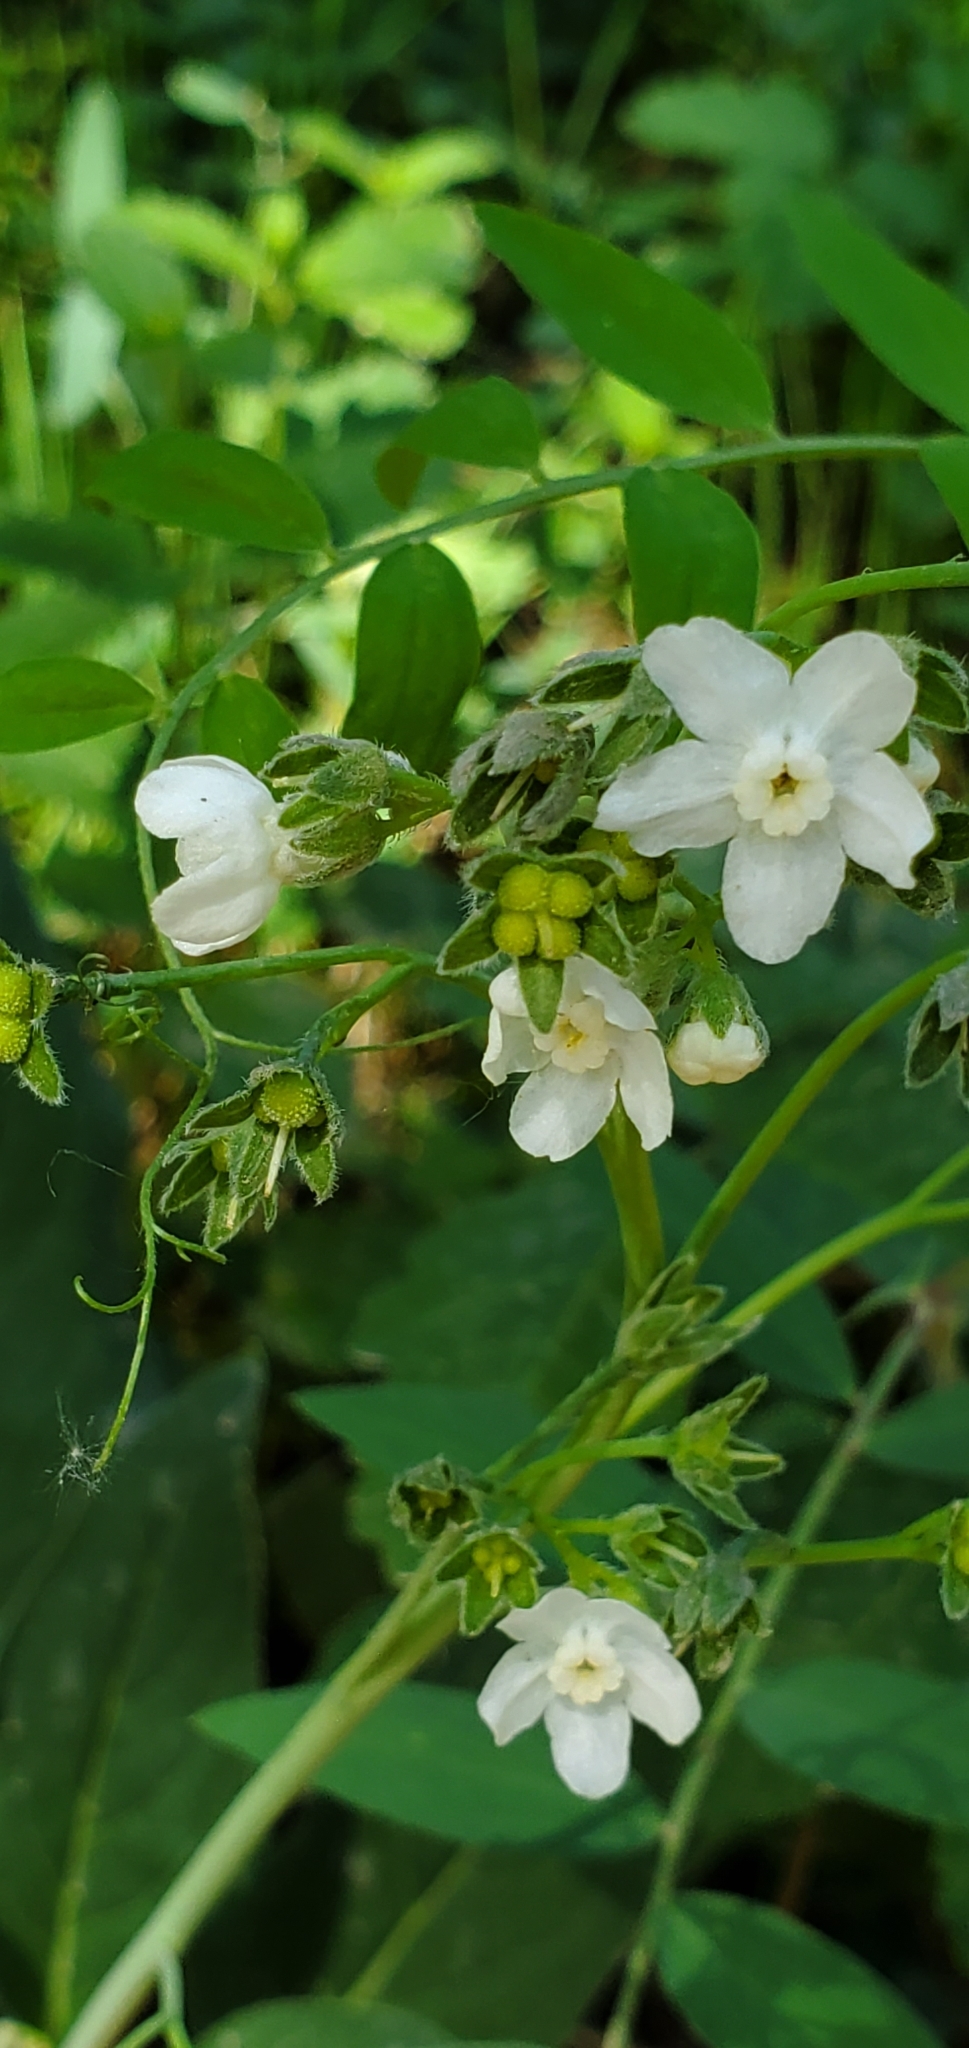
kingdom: Plantae
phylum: Tracheophyta
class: Magnoliopsida
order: Boraginales
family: Boraginaceae
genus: Adelinia
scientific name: Adelinia grande
